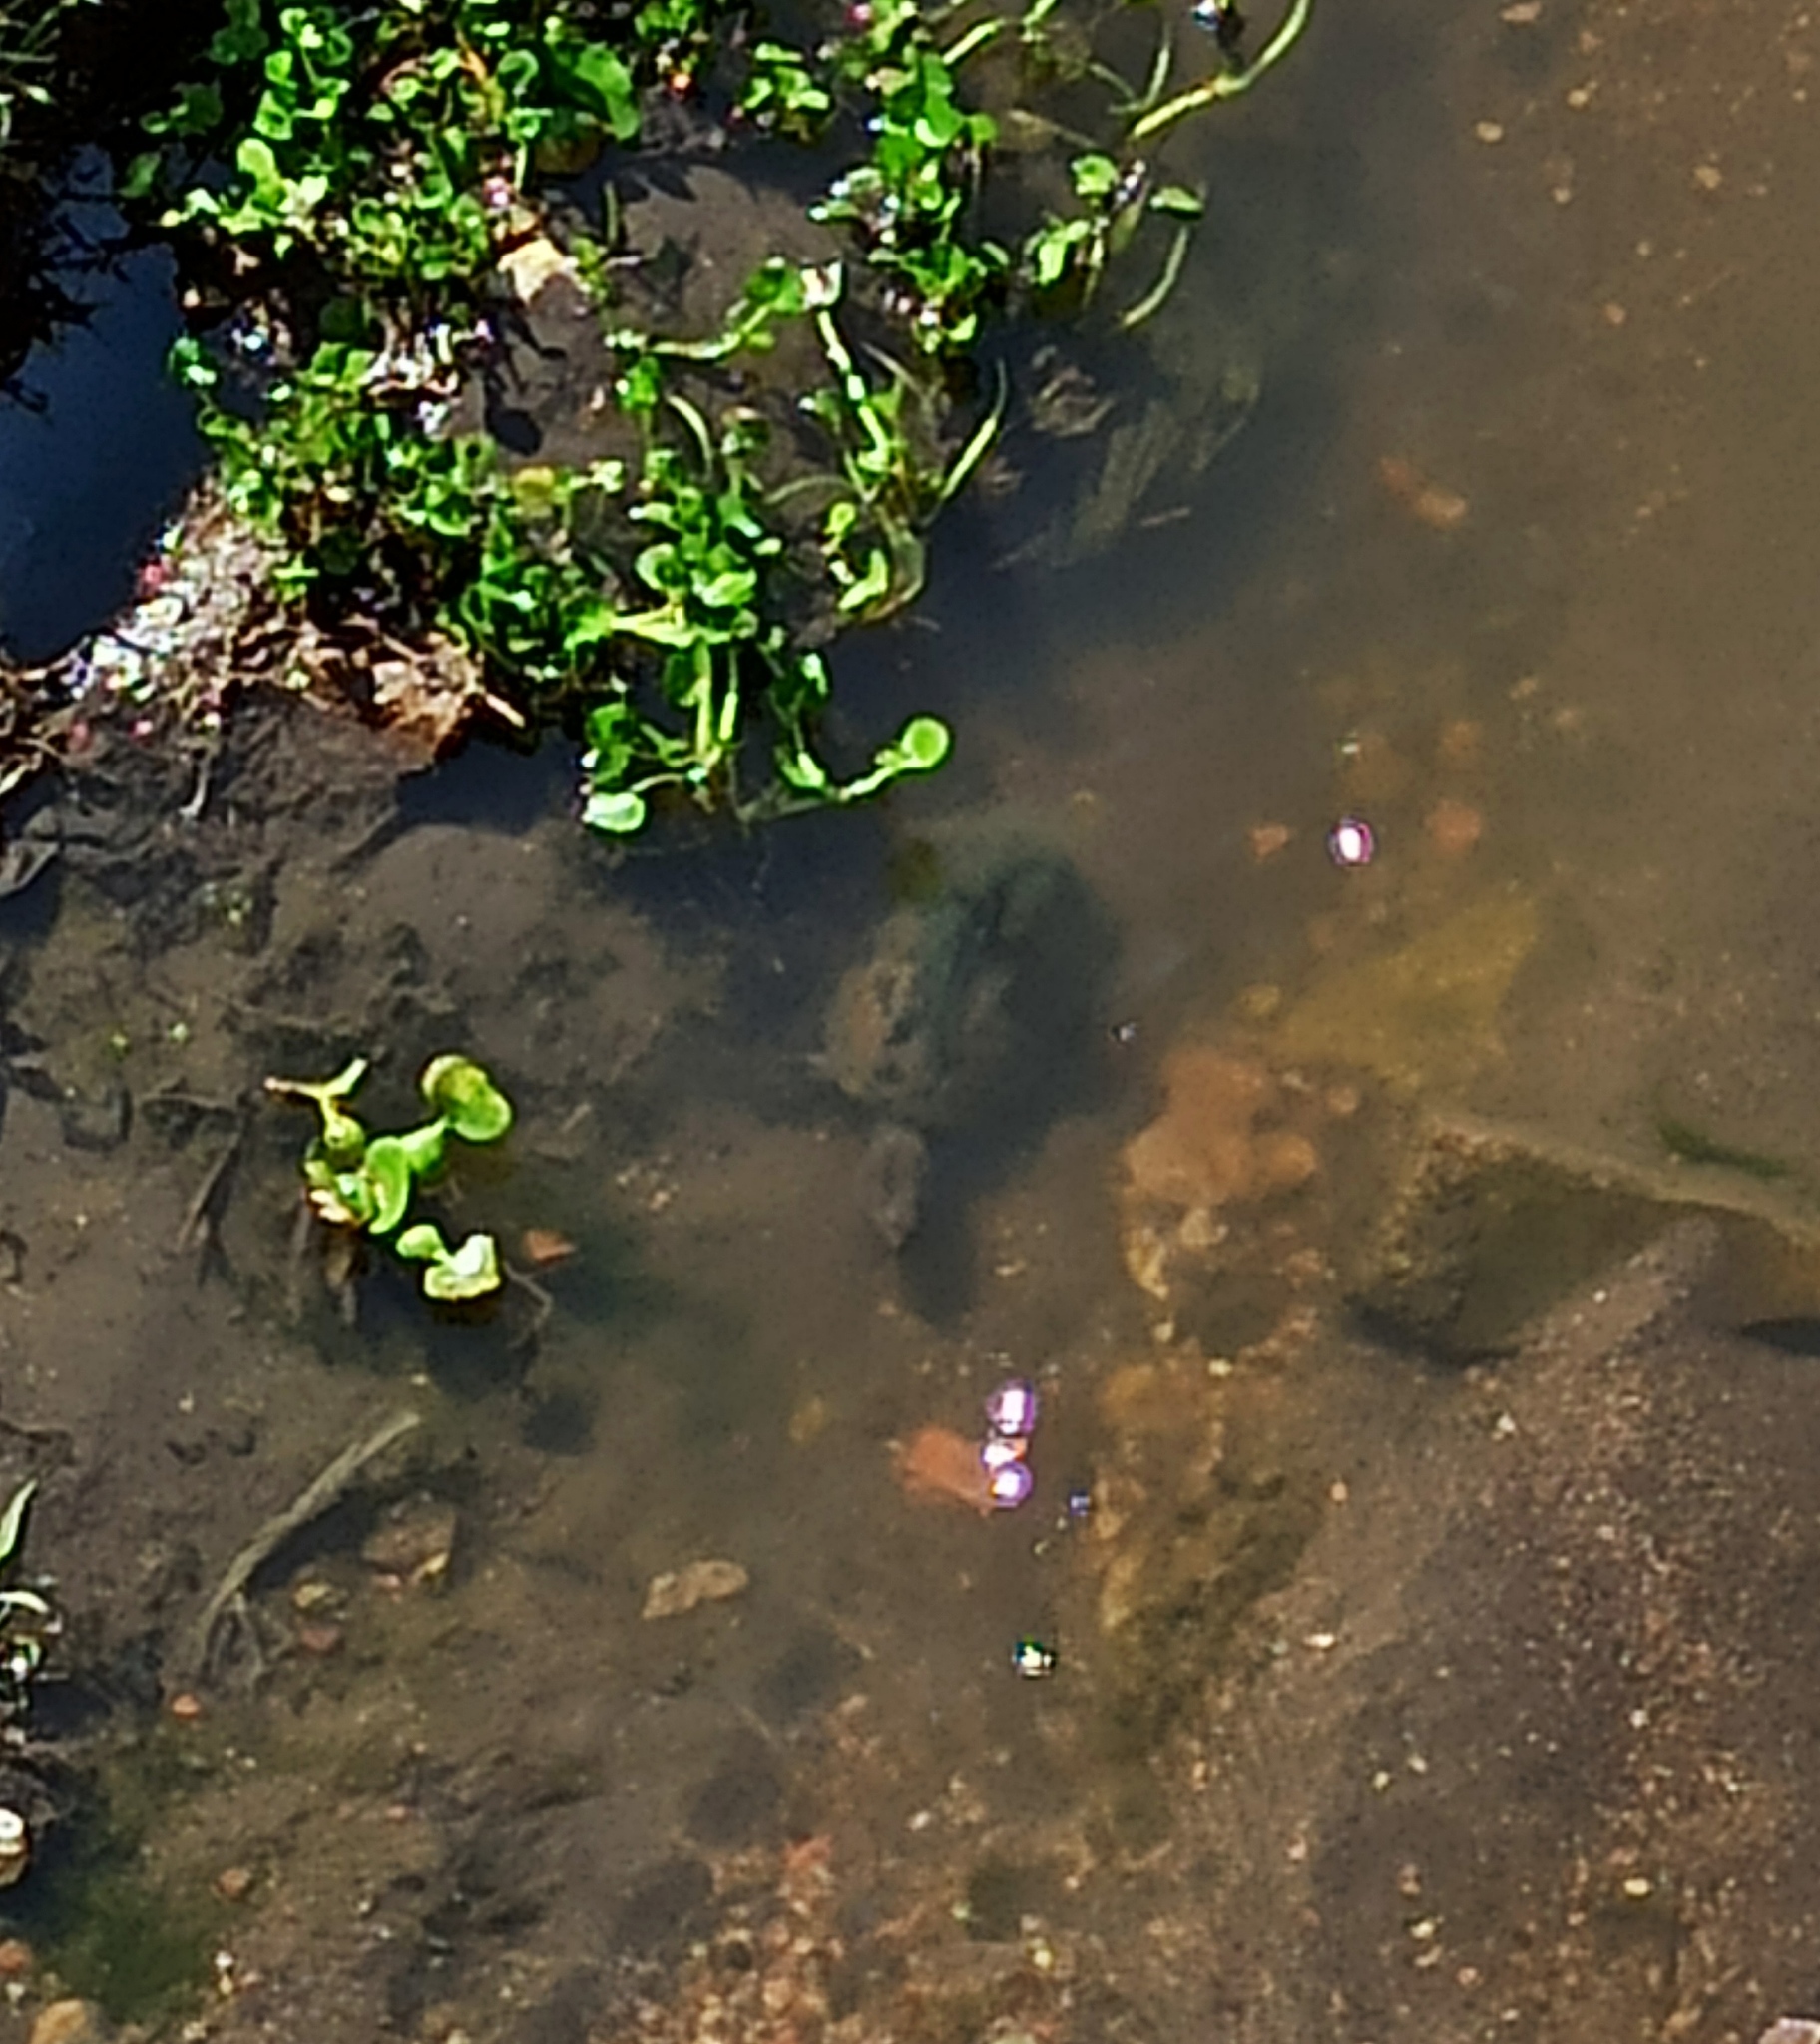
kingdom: Animalia
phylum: Chordata
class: Testudines
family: Kinosternidae
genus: Kinosternon
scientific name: Kinosternon integrum
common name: Mexican mud turtle
